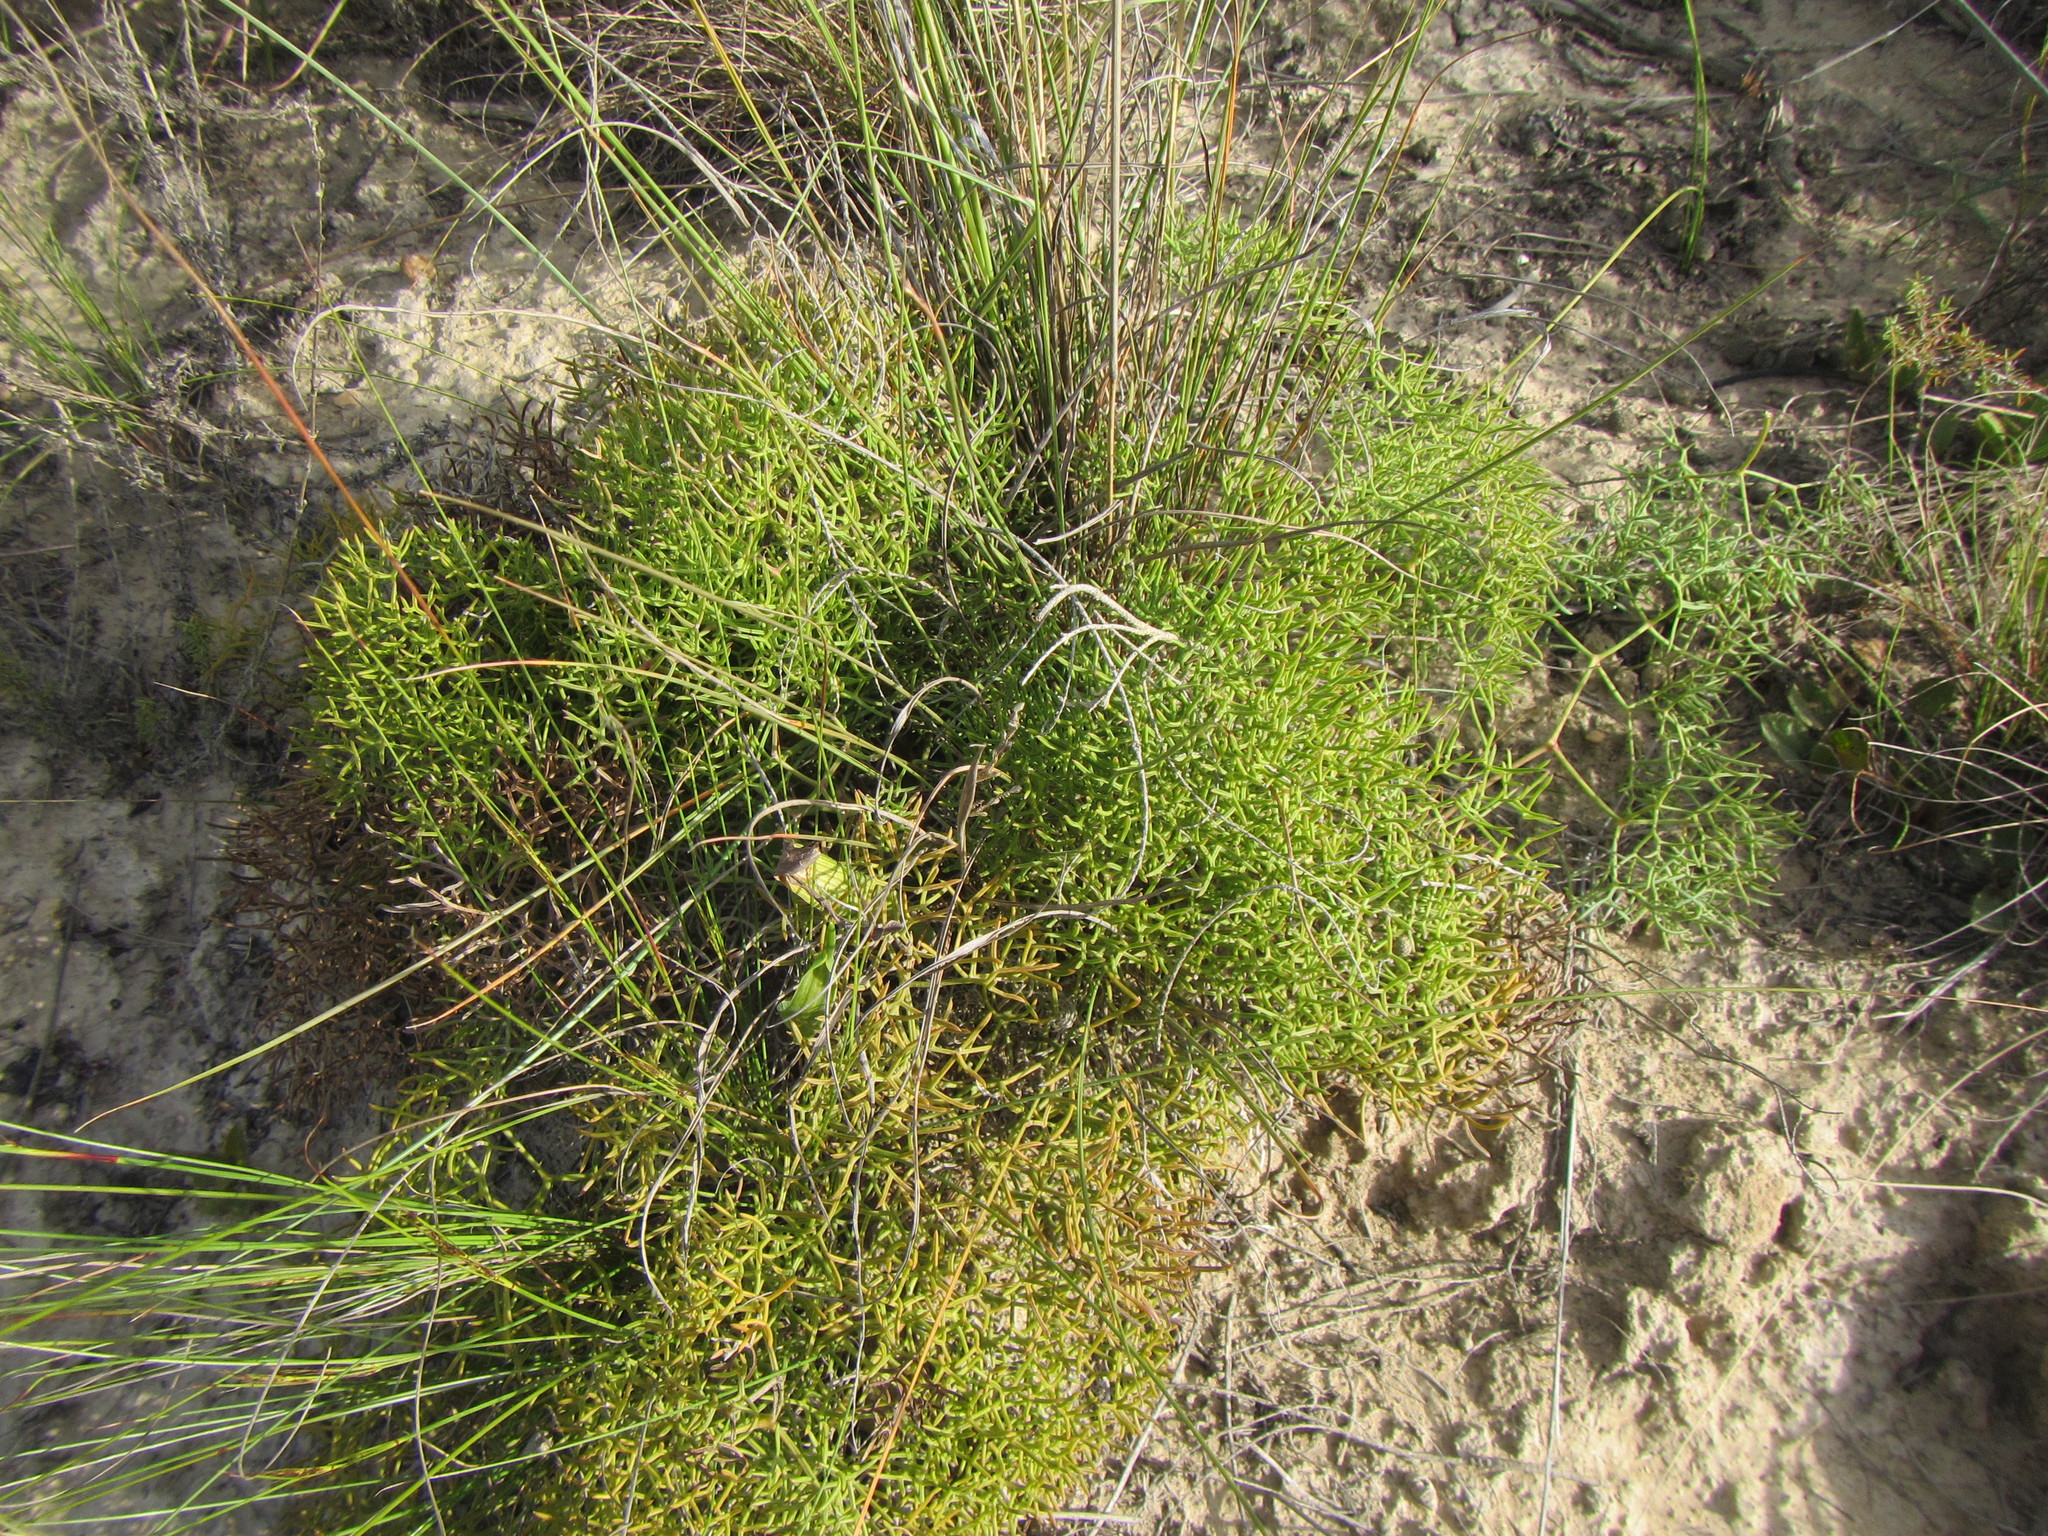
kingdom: Plantae
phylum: Tracheophyta
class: Magnoliopsida
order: Apiales
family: Apiaceae
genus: Nanobubon
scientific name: Nanobubon capillaceum
